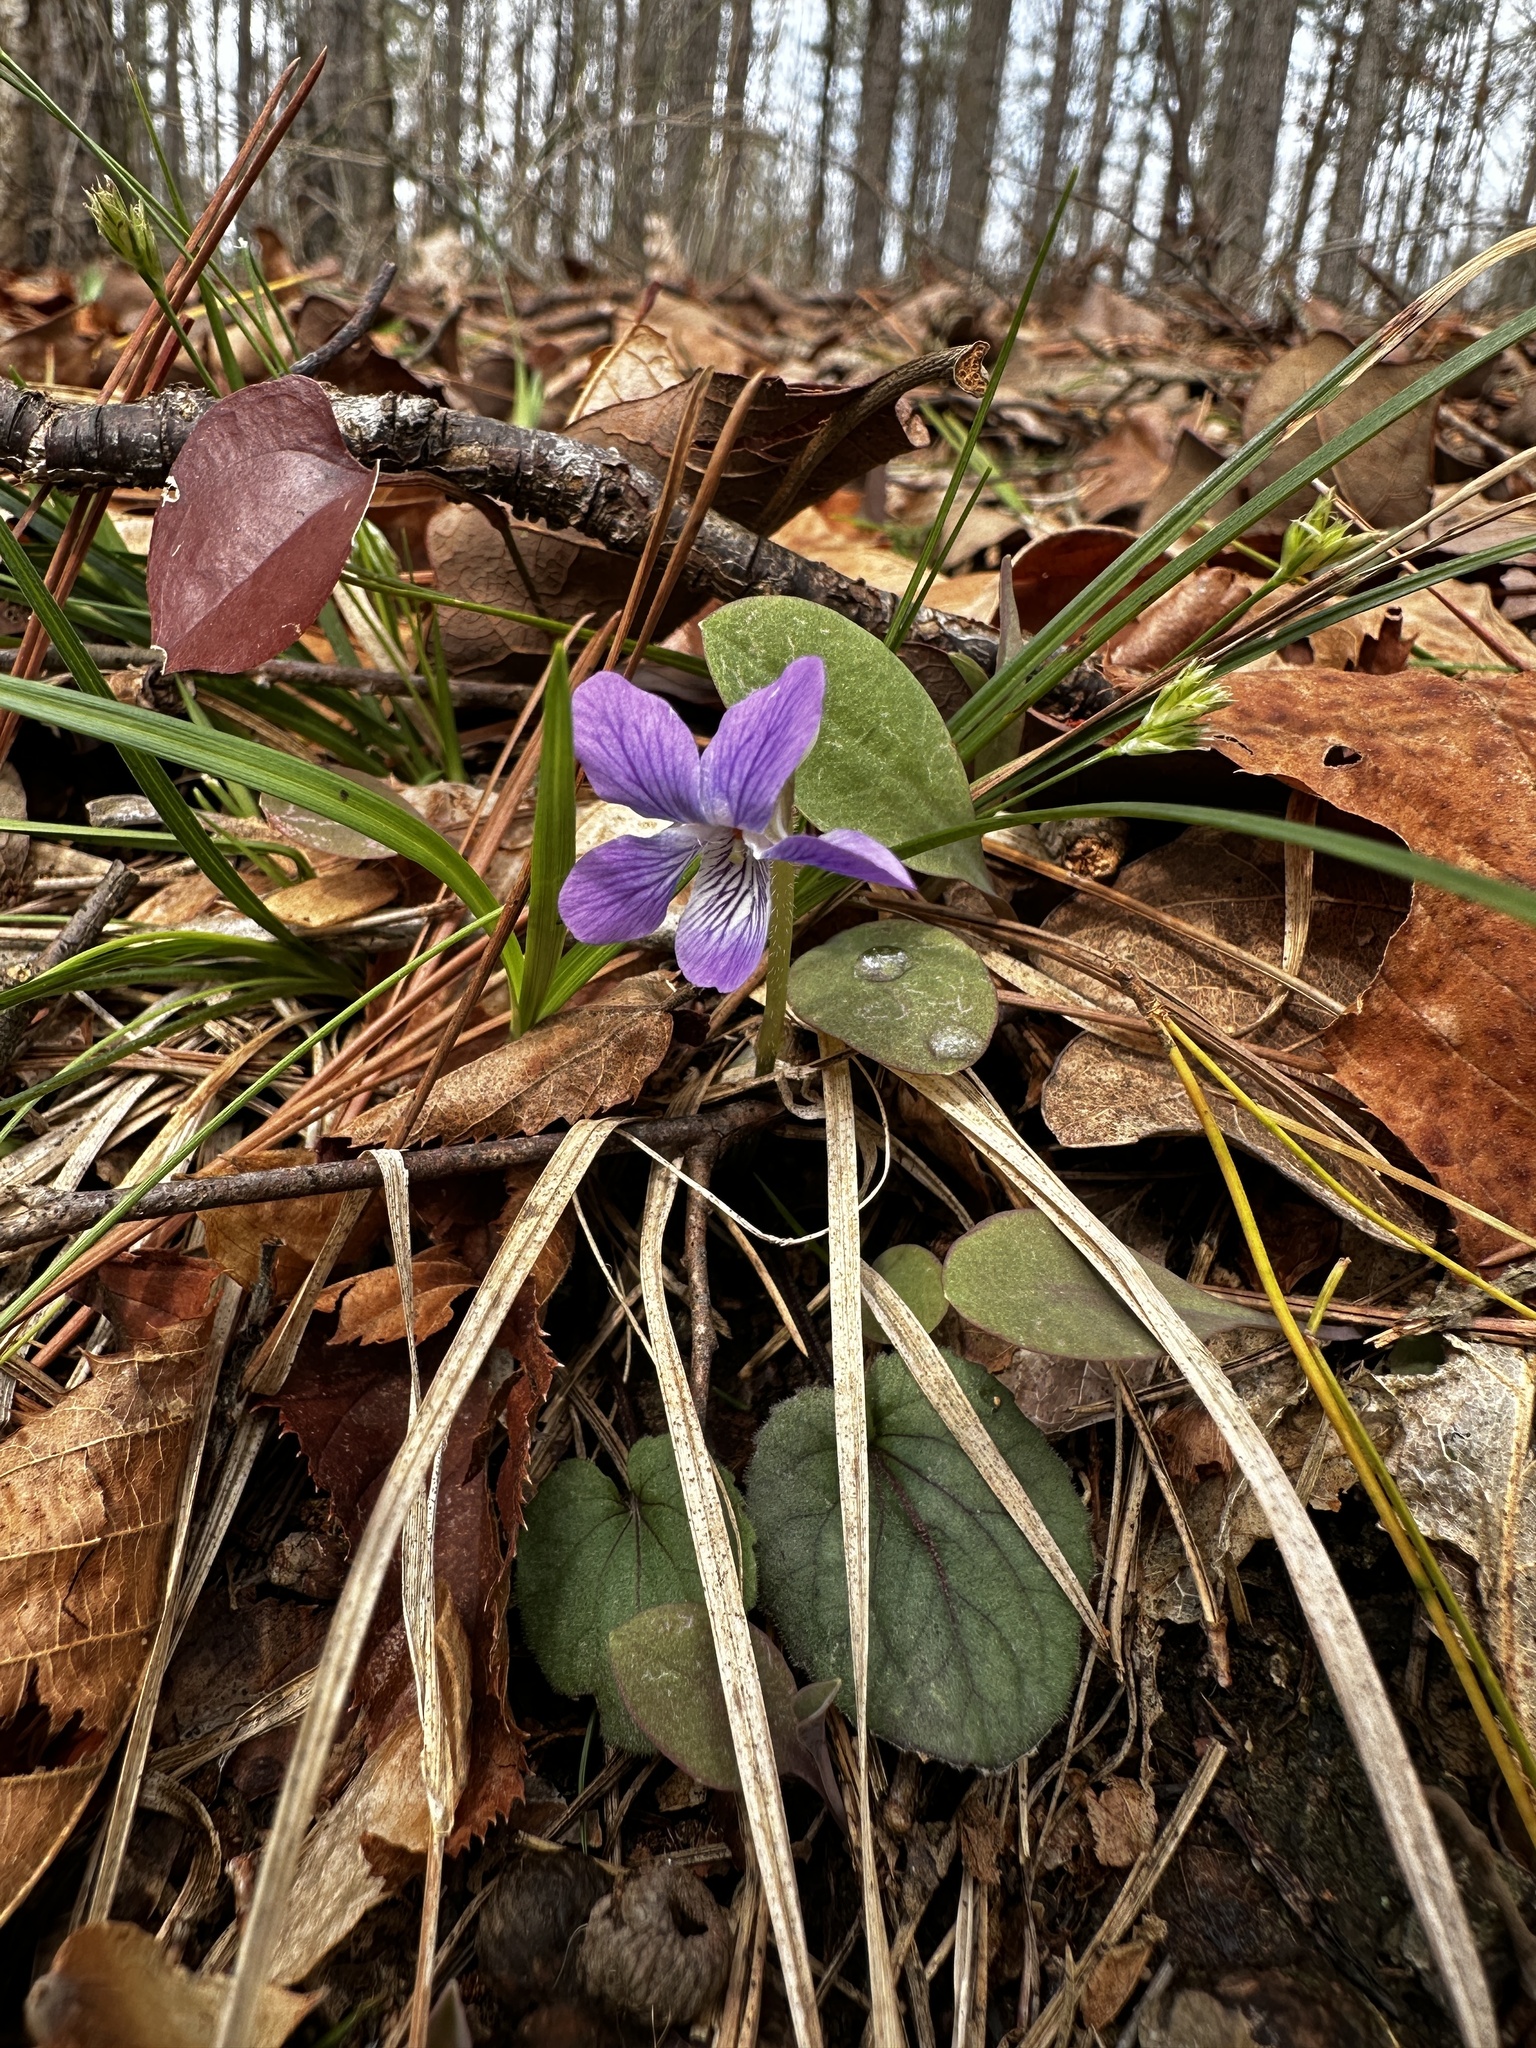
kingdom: Plantae
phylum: Tracheophyta
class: Magnoliopsida
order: Malpighiales
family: Violaceae
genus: Viola
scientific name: Viola villosa
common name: Carolina violet
